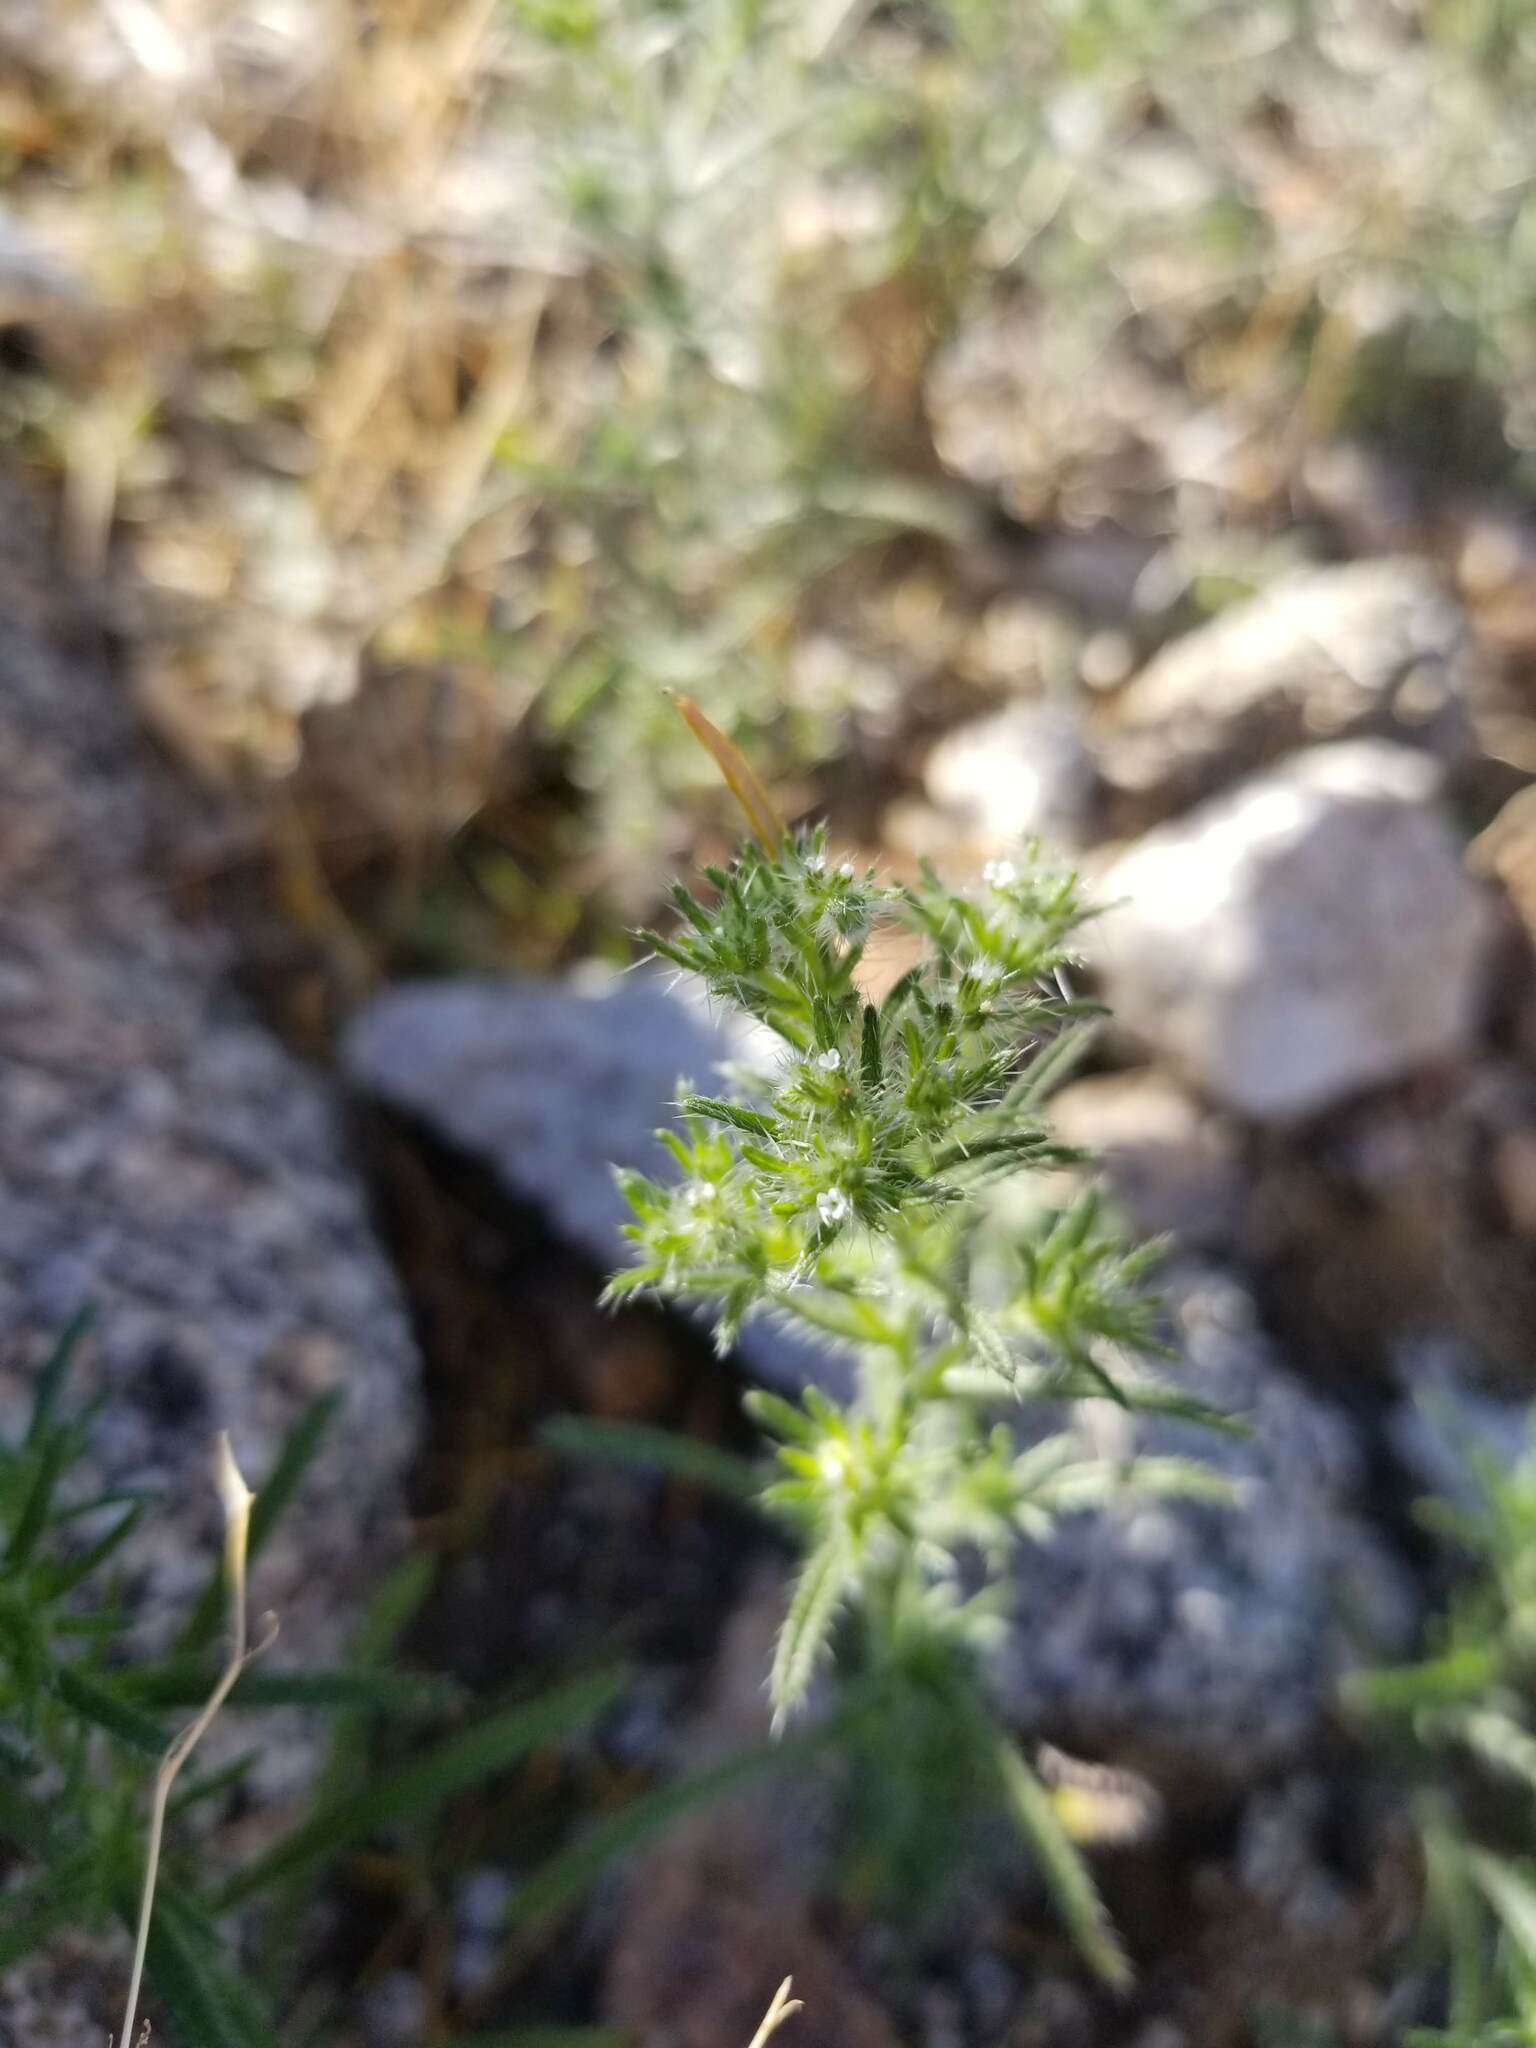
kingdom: Plantae
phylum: Tracheophyta
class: Magnoliopsida
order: Boraginales
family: Boraginaceae
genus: Cryptantha
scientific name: Cryptantha maritima
